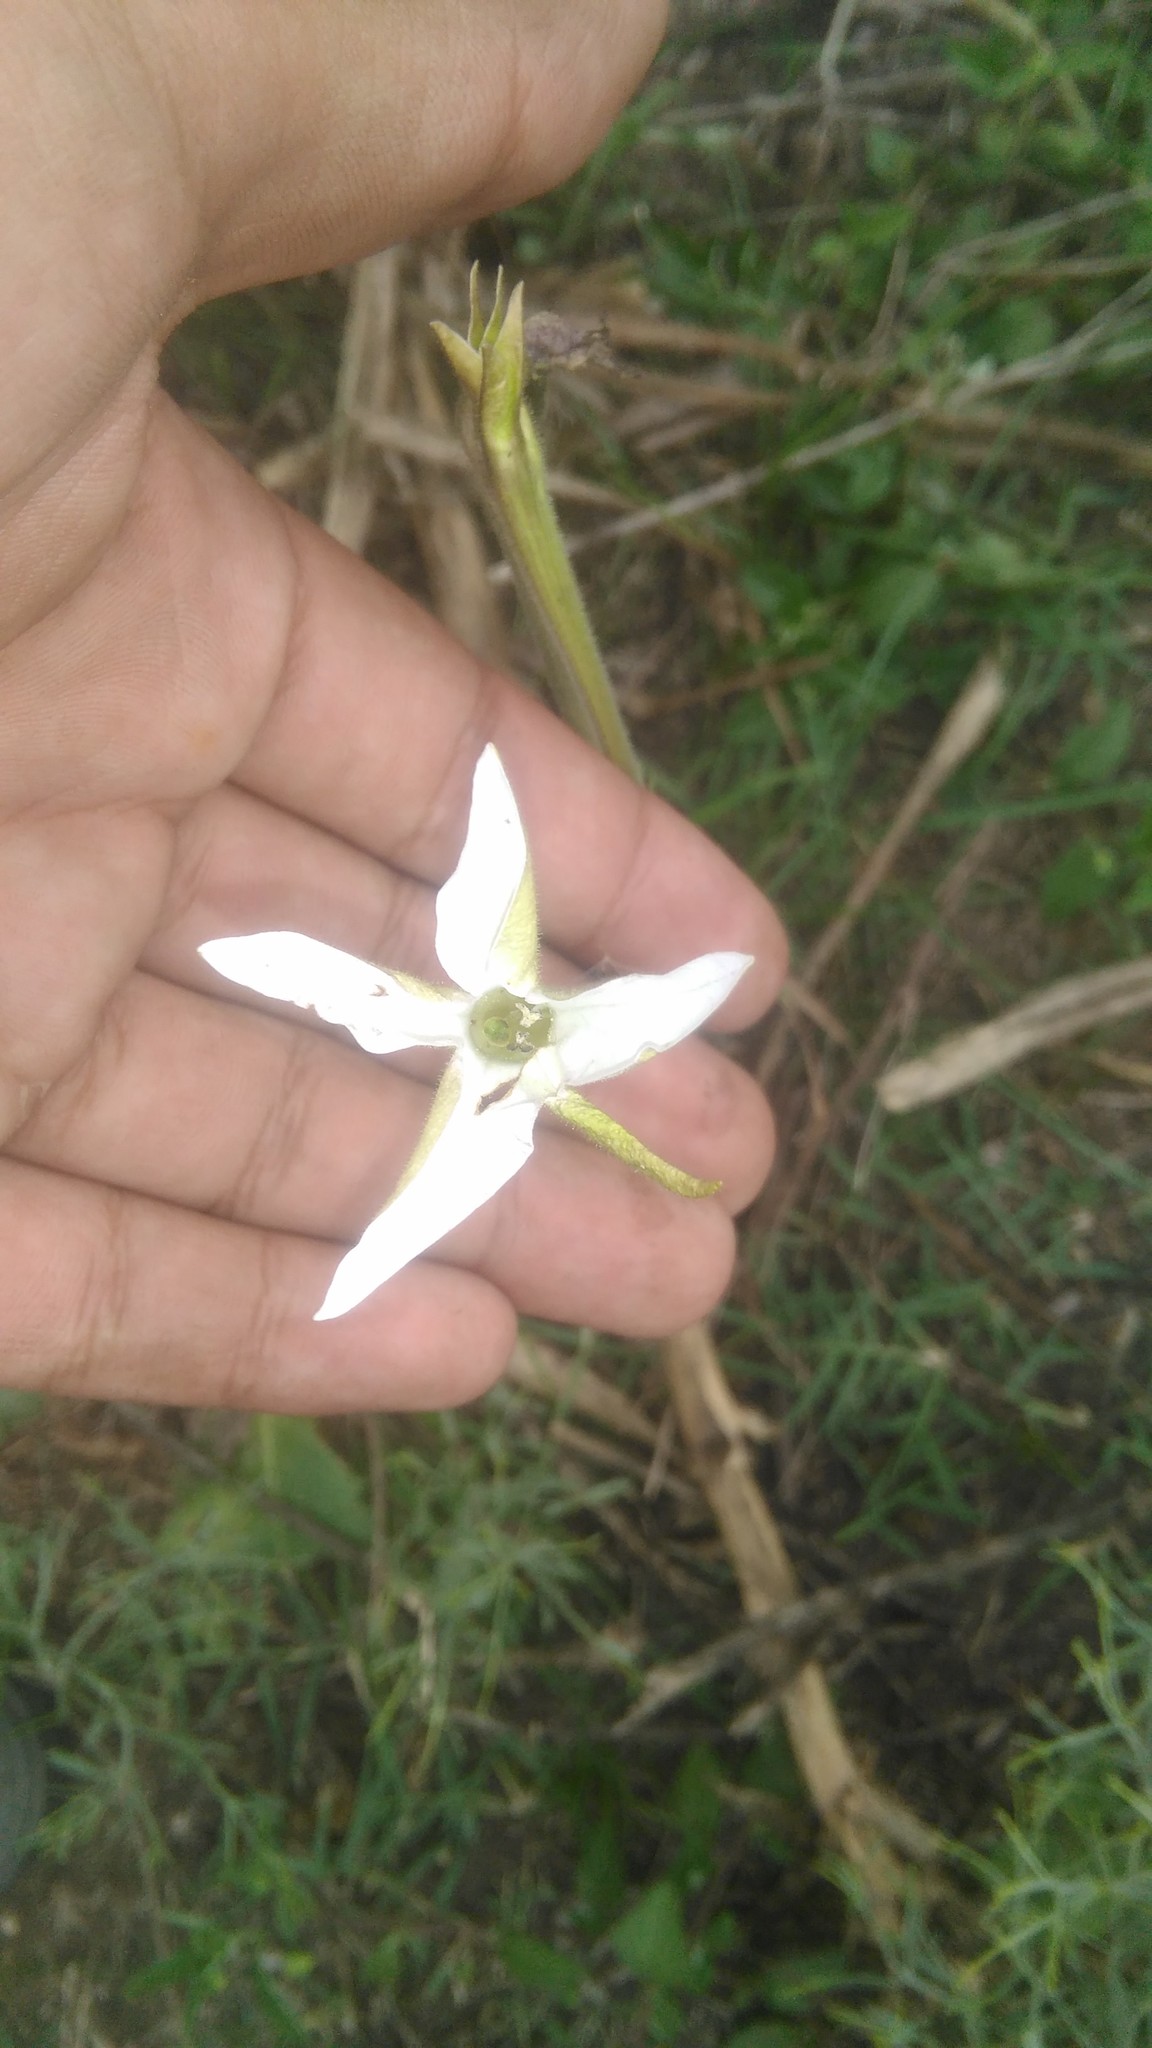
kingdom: Plantae
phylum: Tracheophyta
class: Magnoliopsida
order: Solanales
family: Solanaceae
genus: Nicotiana
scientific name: Nicotiana longiflora
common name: Long-flowered tobacco
